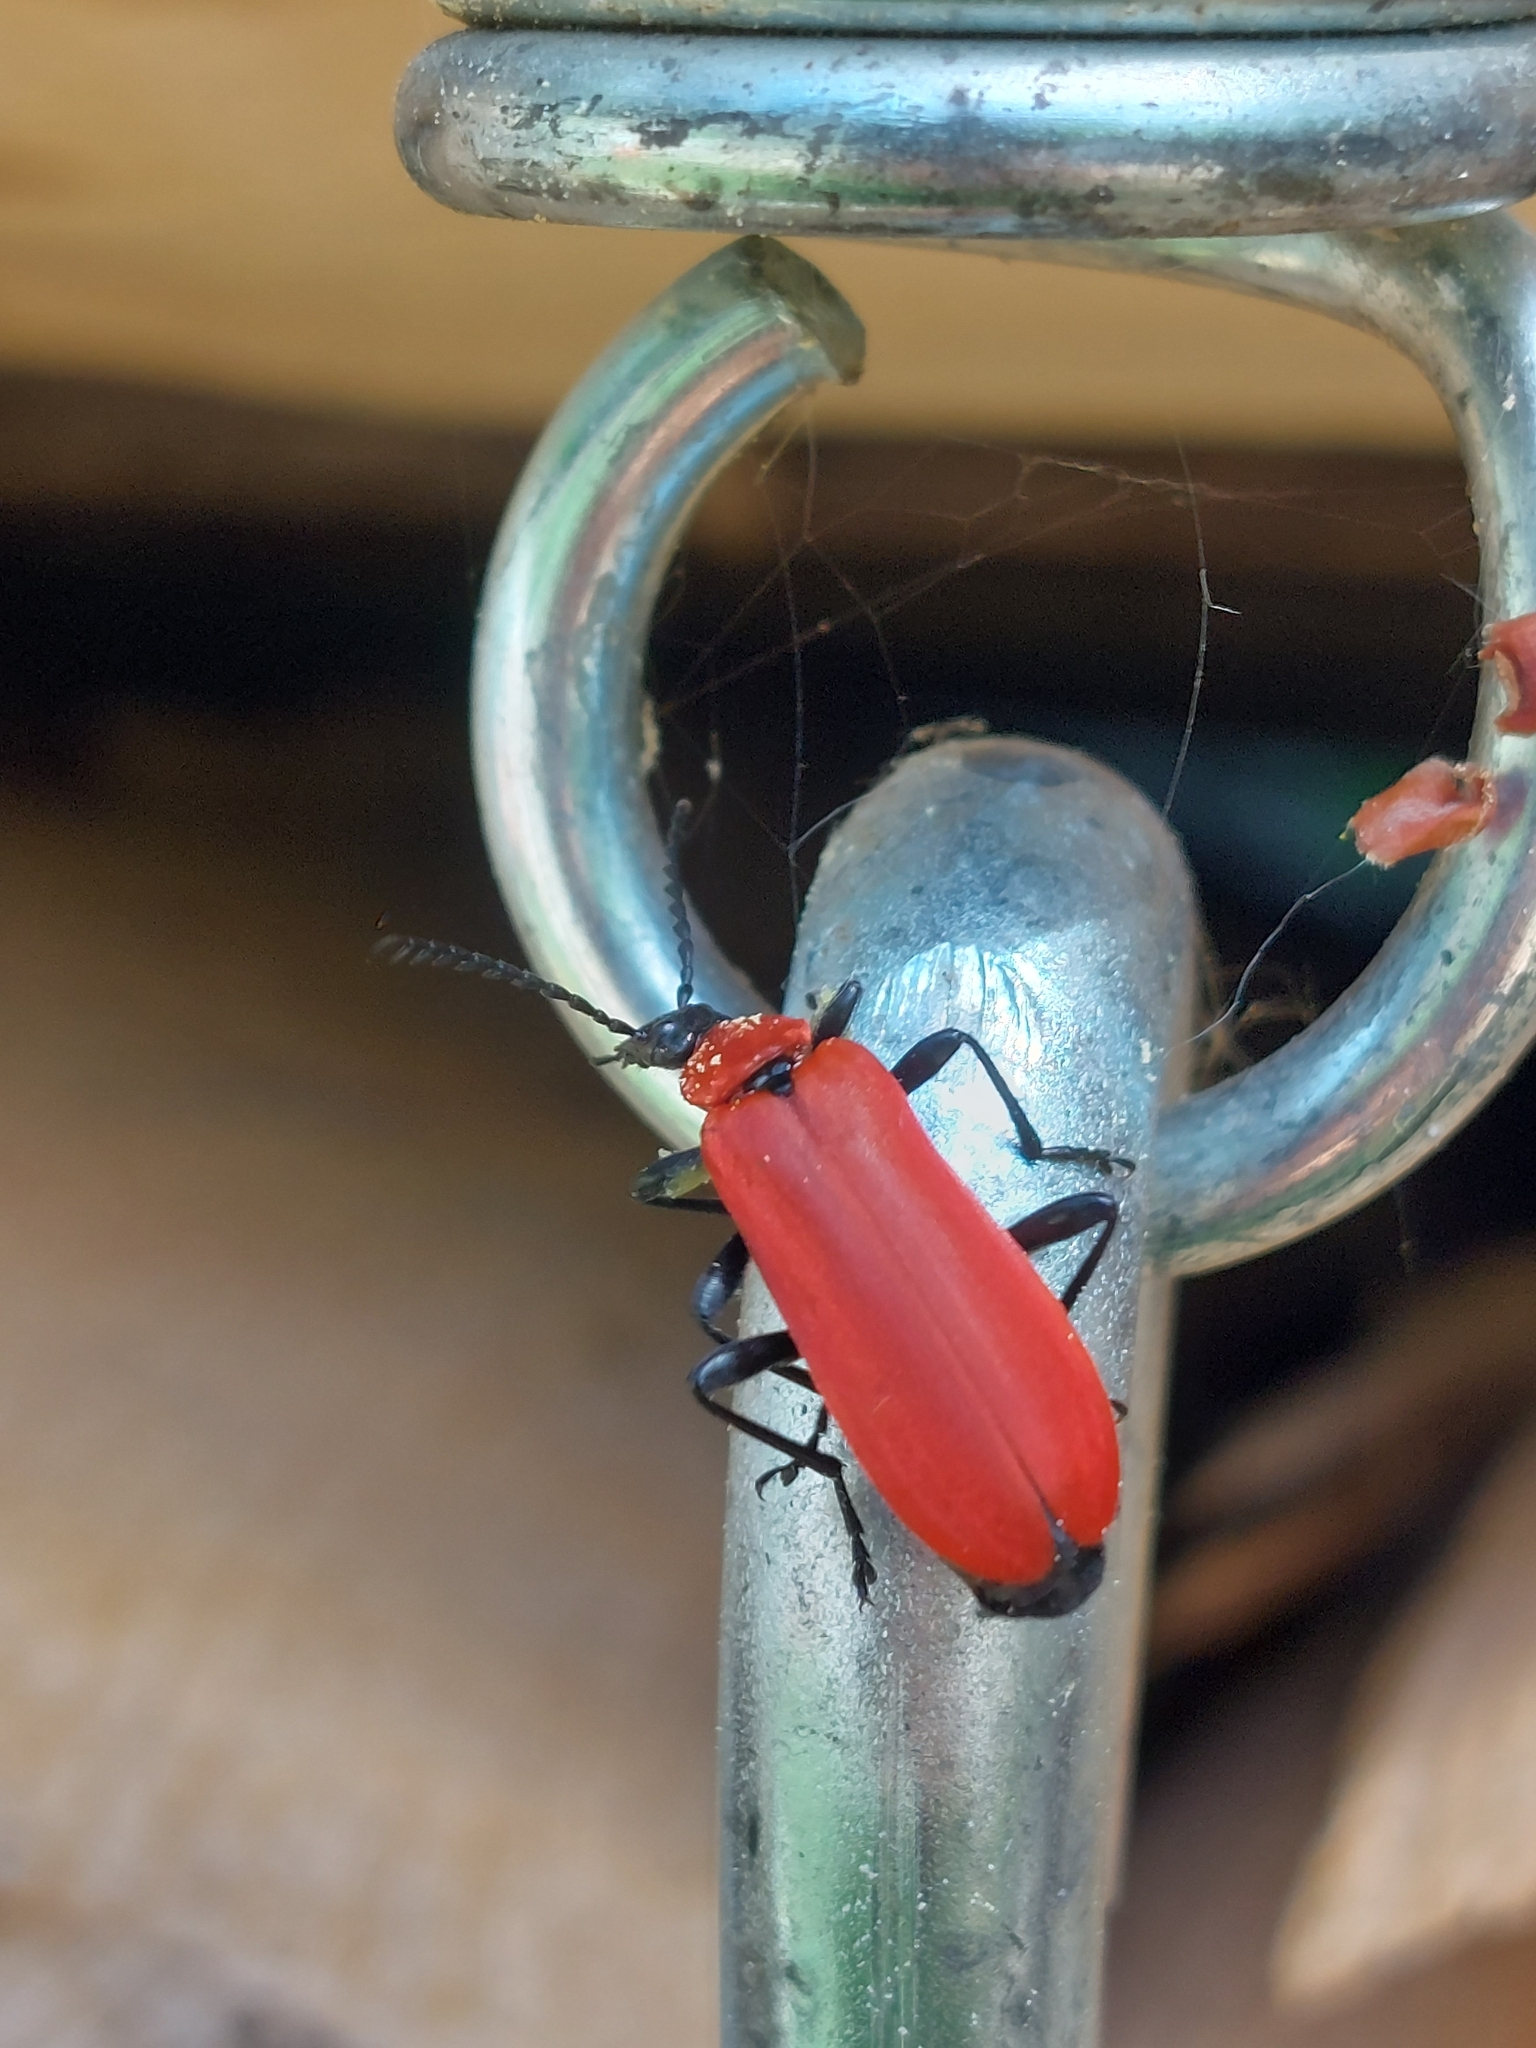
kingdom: Animalia
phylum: Arthropoda
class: Insecta
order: Coleoptera
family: Pyrochroidae
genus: Pyrochroa
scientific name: Pyrochroa coccinea
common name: Black-headed cardinal beetle
